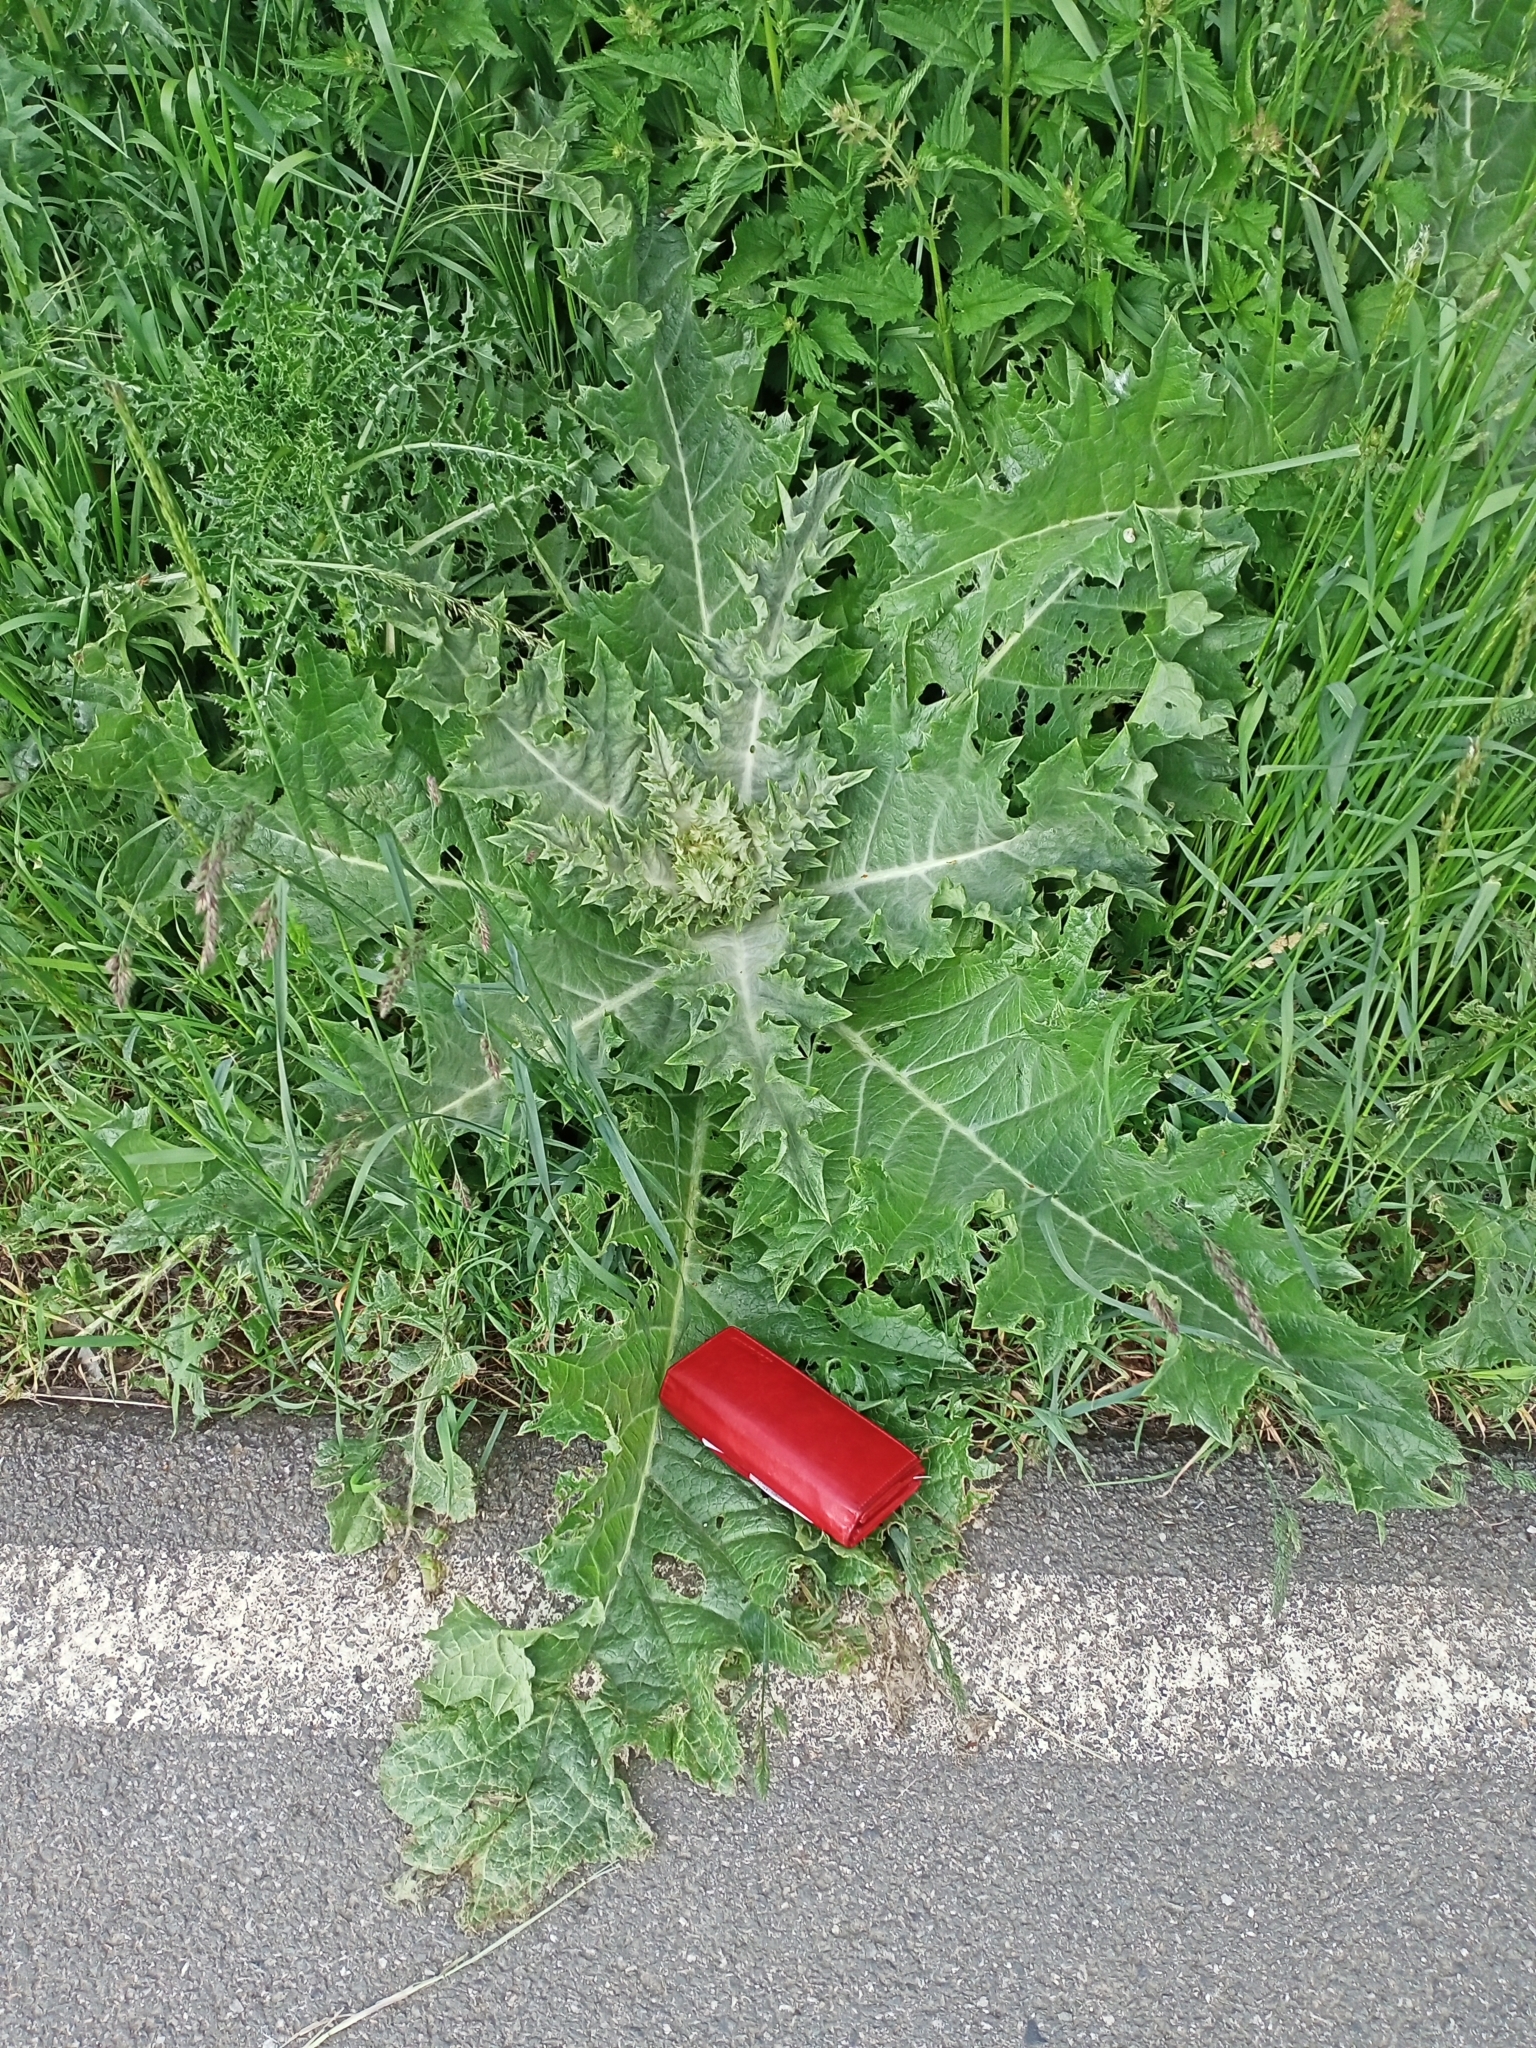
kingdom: Plantae
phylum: Tracheophyta
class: Magnoliopsida
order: Asterales
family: Asteraceae
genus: Onopordum
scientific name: Onopordum acanthium
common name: Scotch thistle
